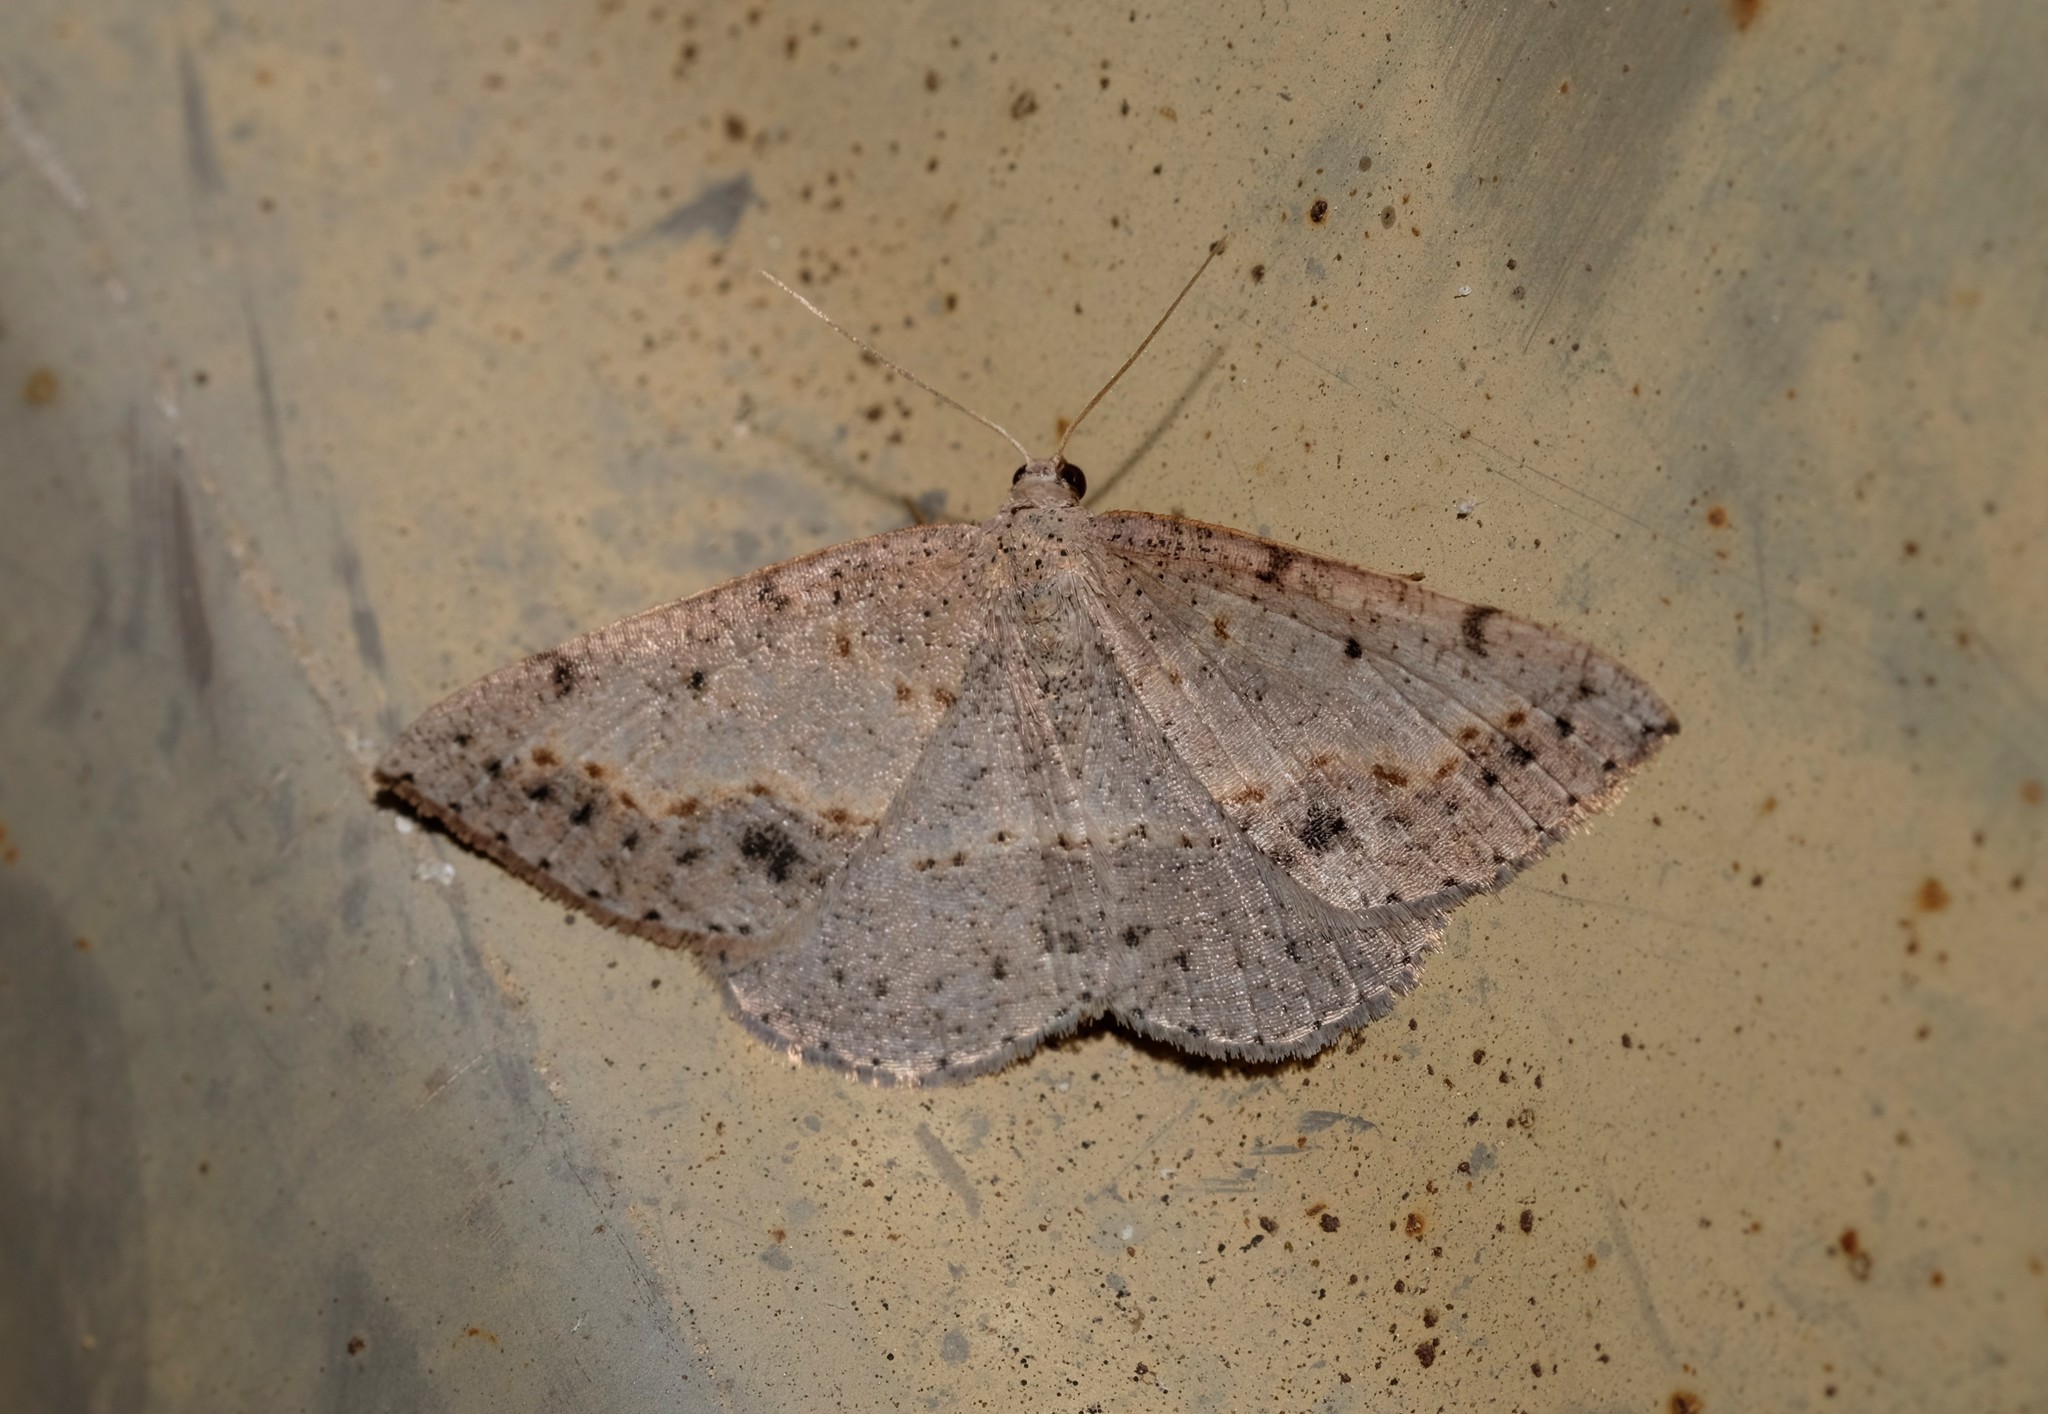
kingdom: Animalia
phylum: Arthropoda
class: Insecta
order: Lepidoptera
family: Geometridae
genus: Taxeotis
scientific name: Taxeotis perlinearia
